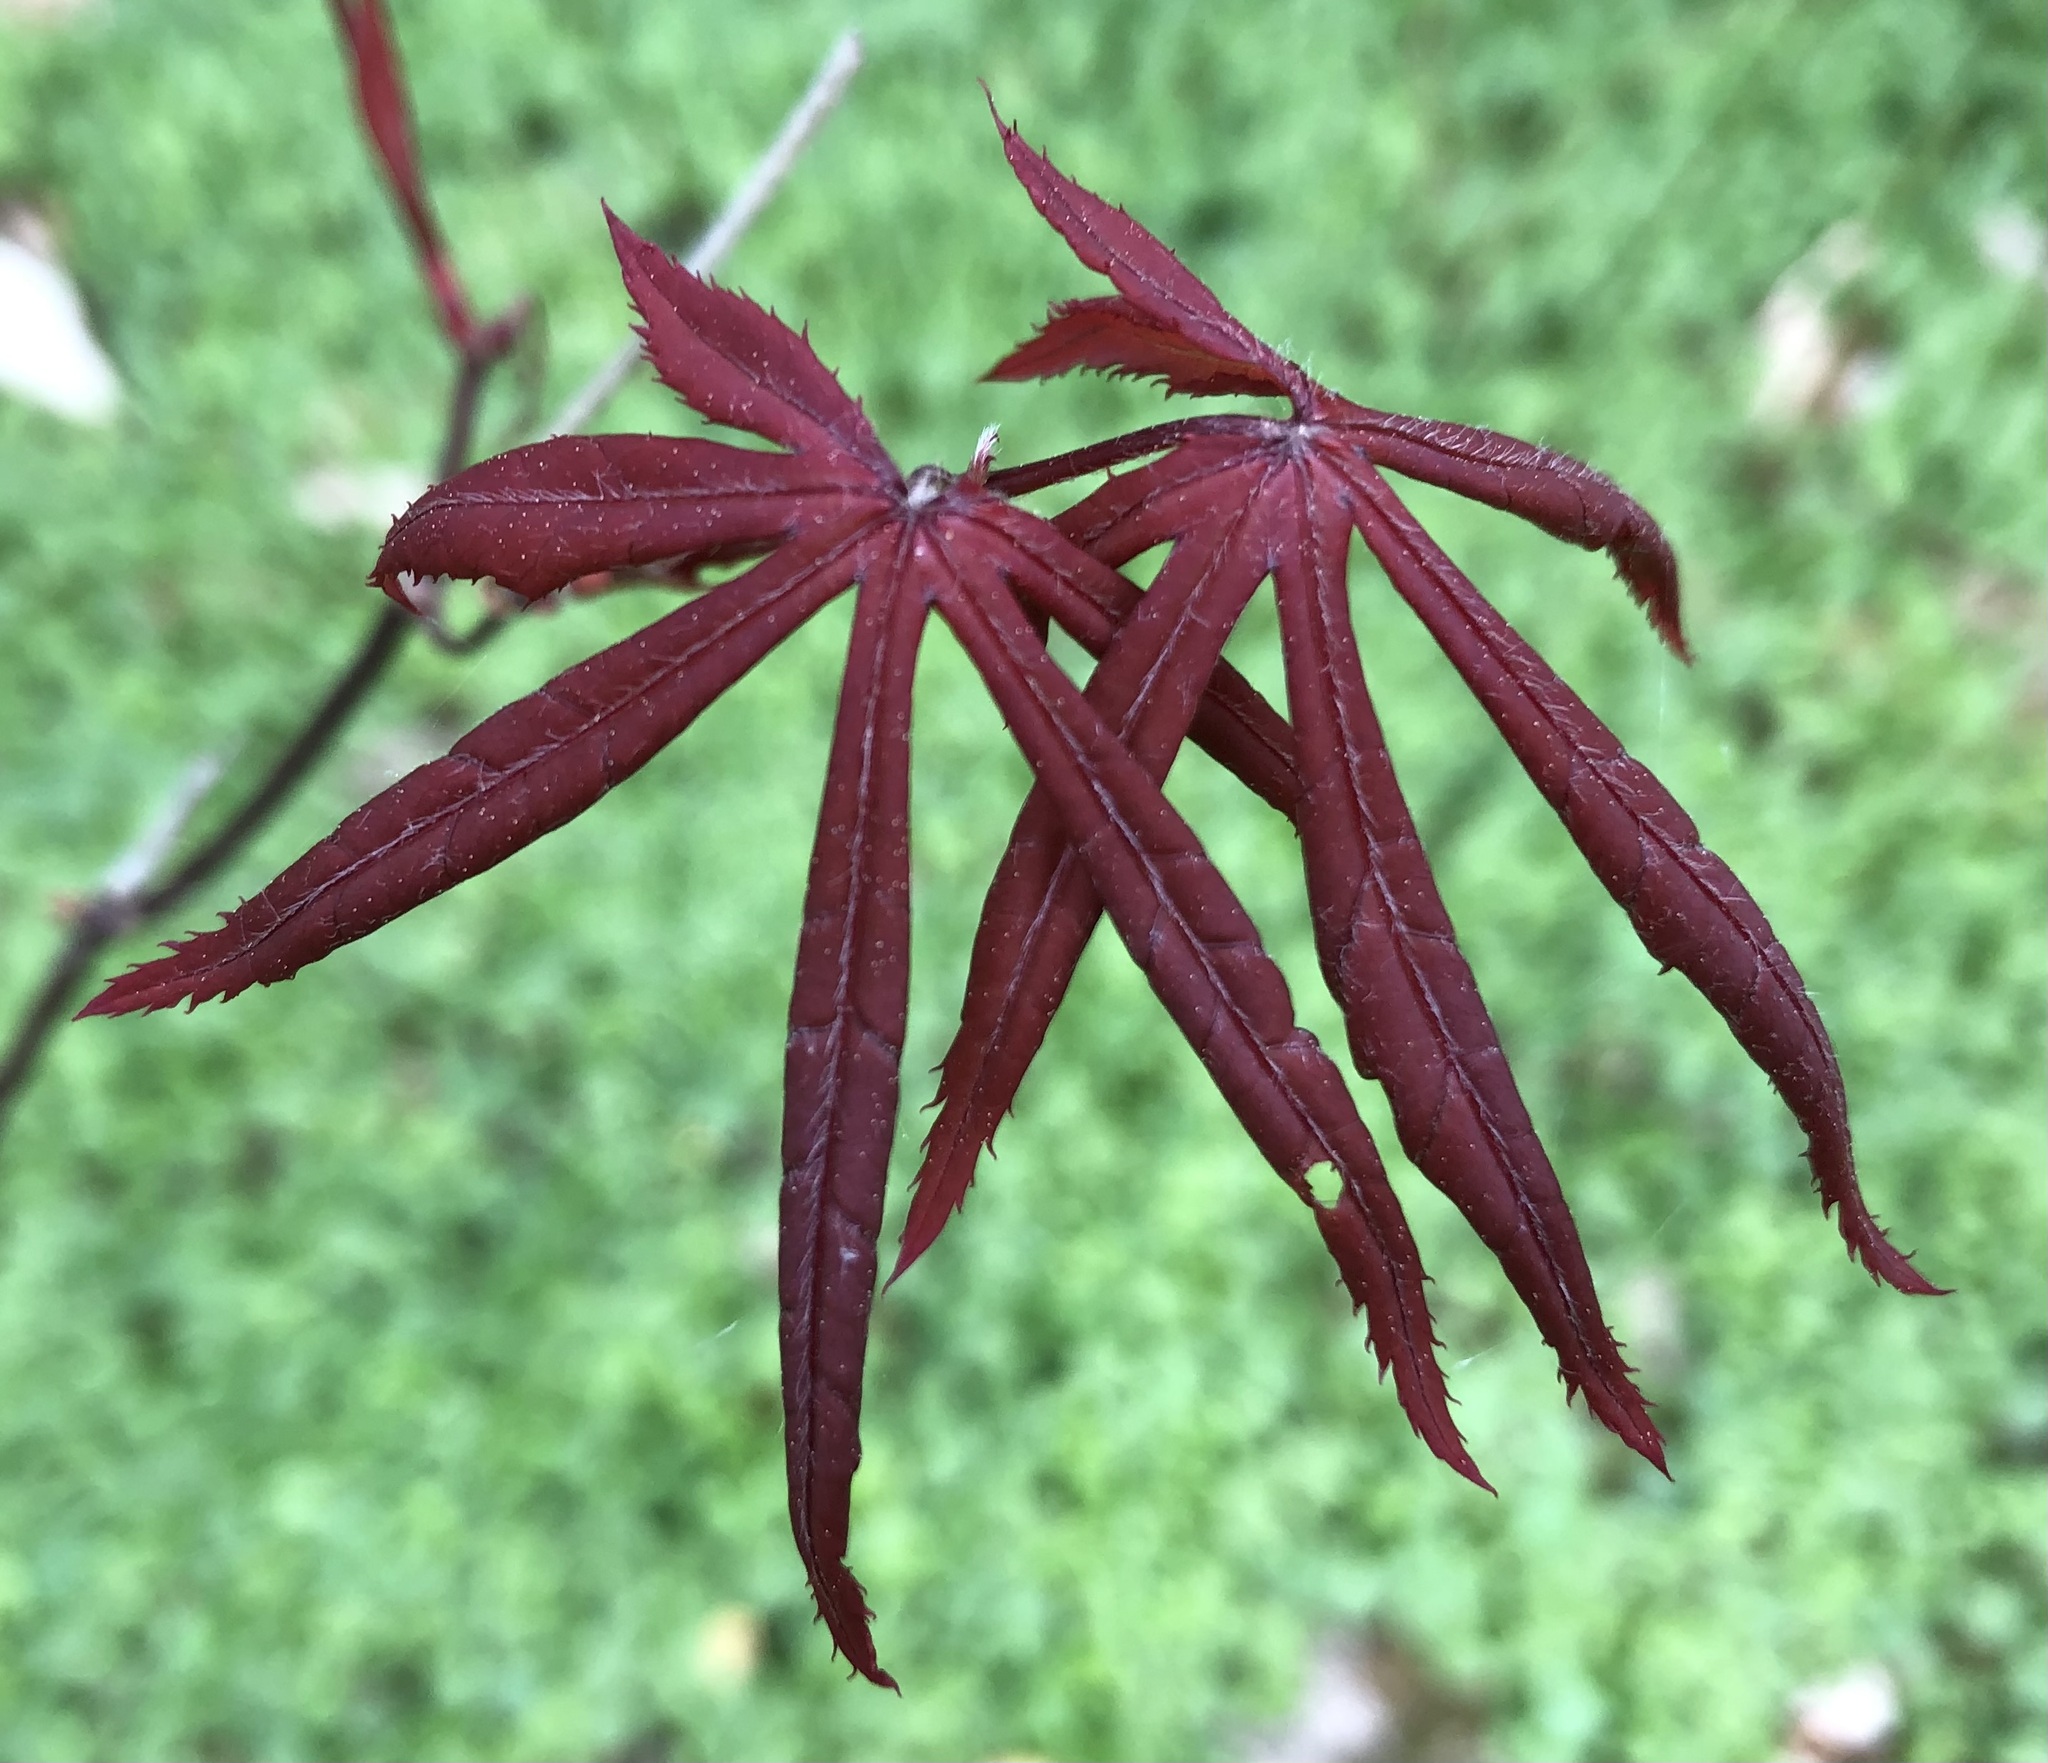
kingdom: Plantae
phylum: Tracheophyta
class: Magnoliopsida
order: Sapindales
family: Sapindaceae
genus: Acer
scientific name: Acer palmatum
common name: Japanese maple
